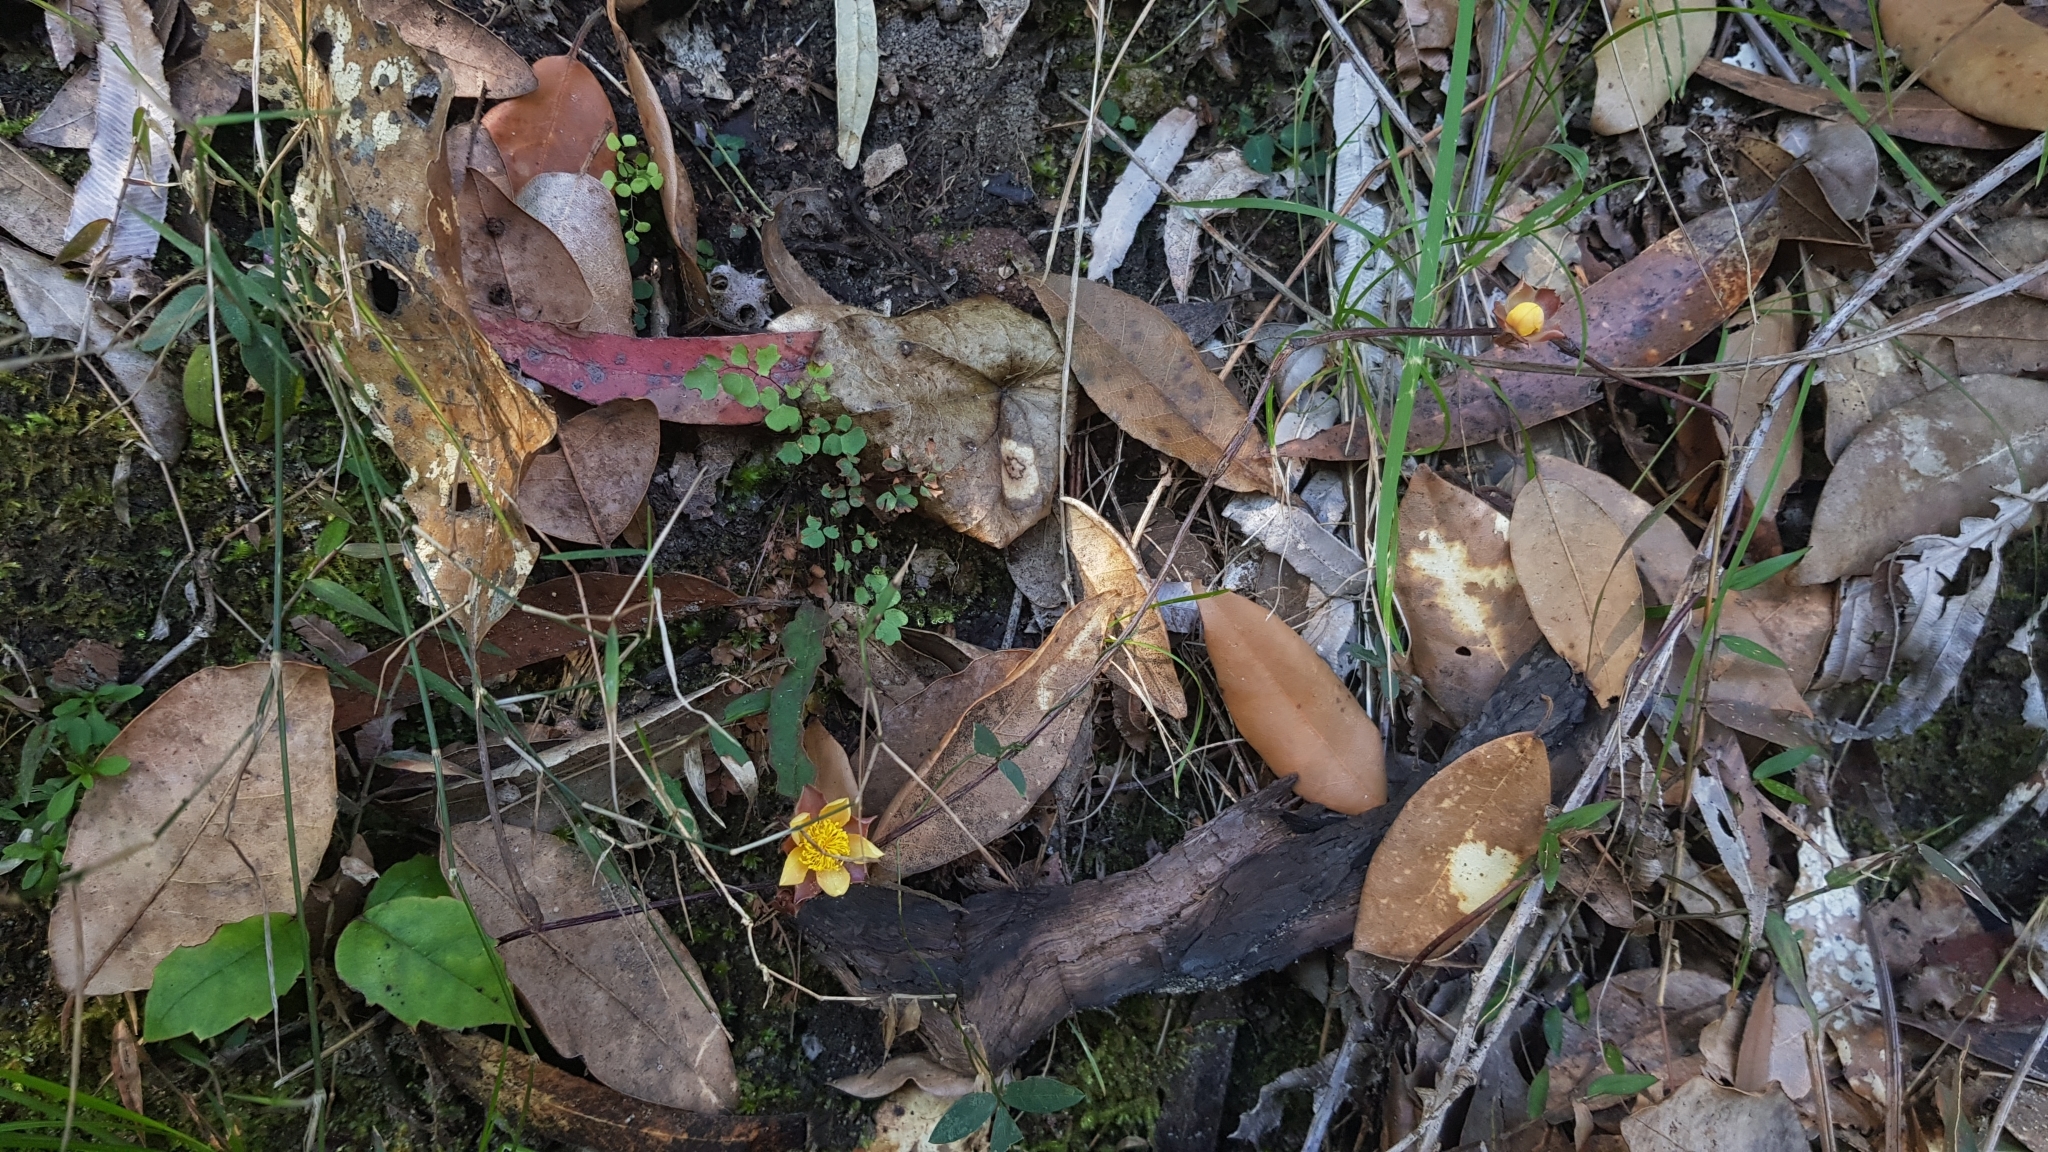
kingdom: Plantae
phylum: Tracheophyta
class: Magnoliopsida
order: Dilleniales
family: Dilleniaceae
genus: Hibbertia
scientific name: Hibbertia dentata
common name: Trailing guinea-flower
